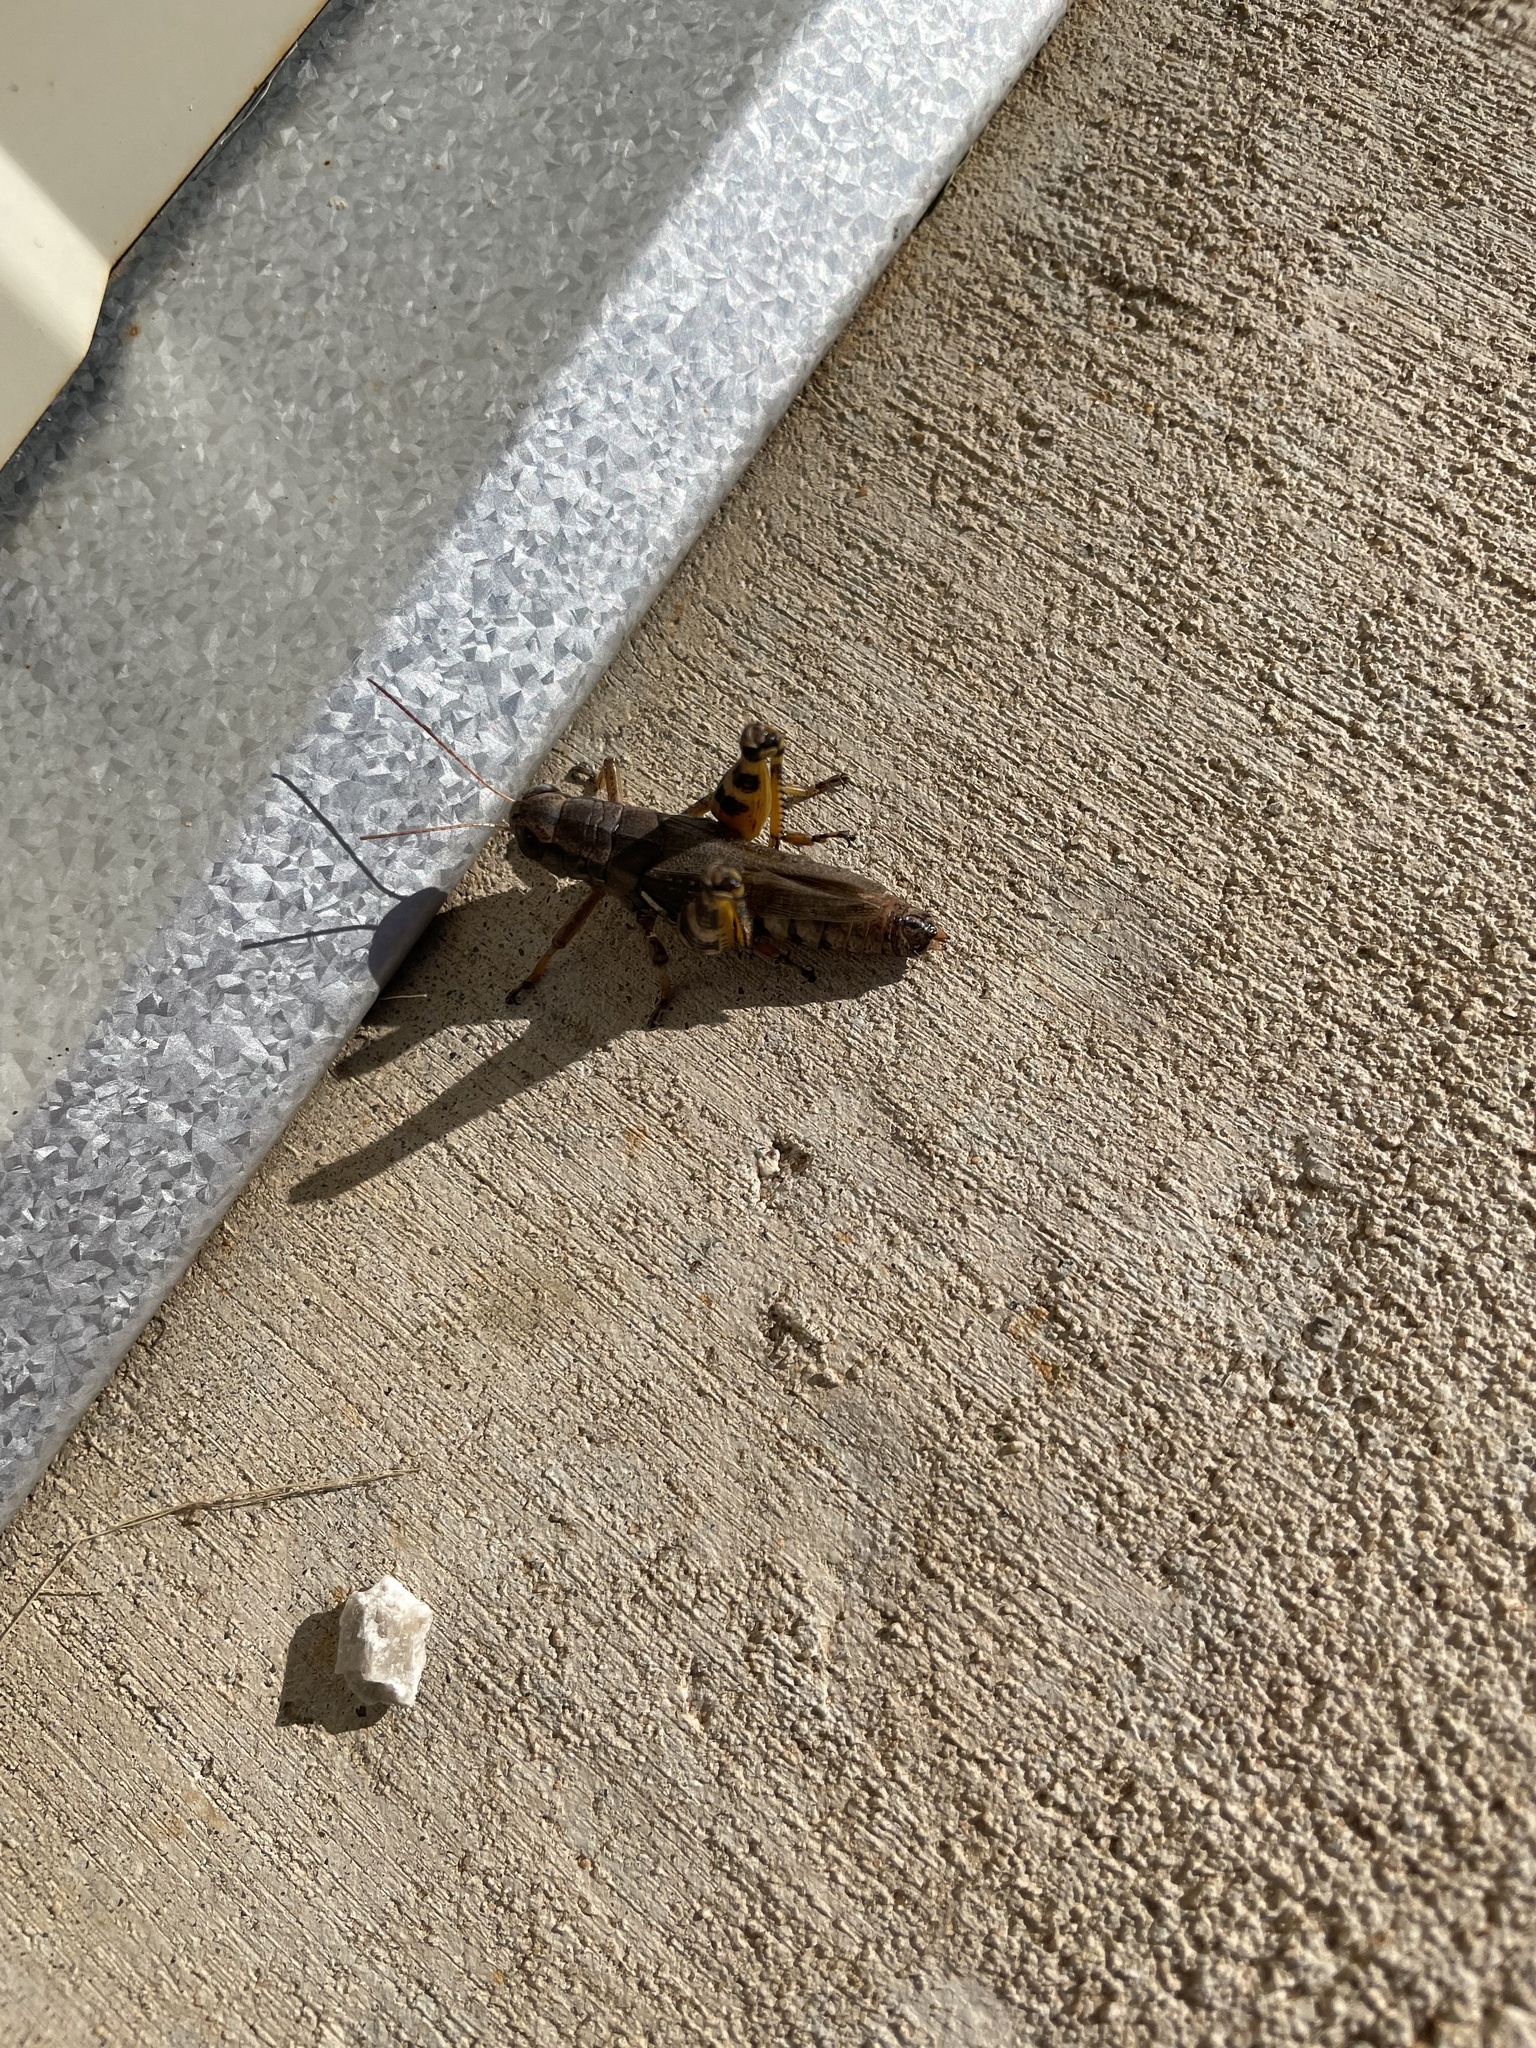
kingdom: Animalia
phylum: Arthropoda
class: Insecta
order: Orthoptera
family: Acrididae
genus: Melanoplus
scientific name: Melanoplus ponderosus
